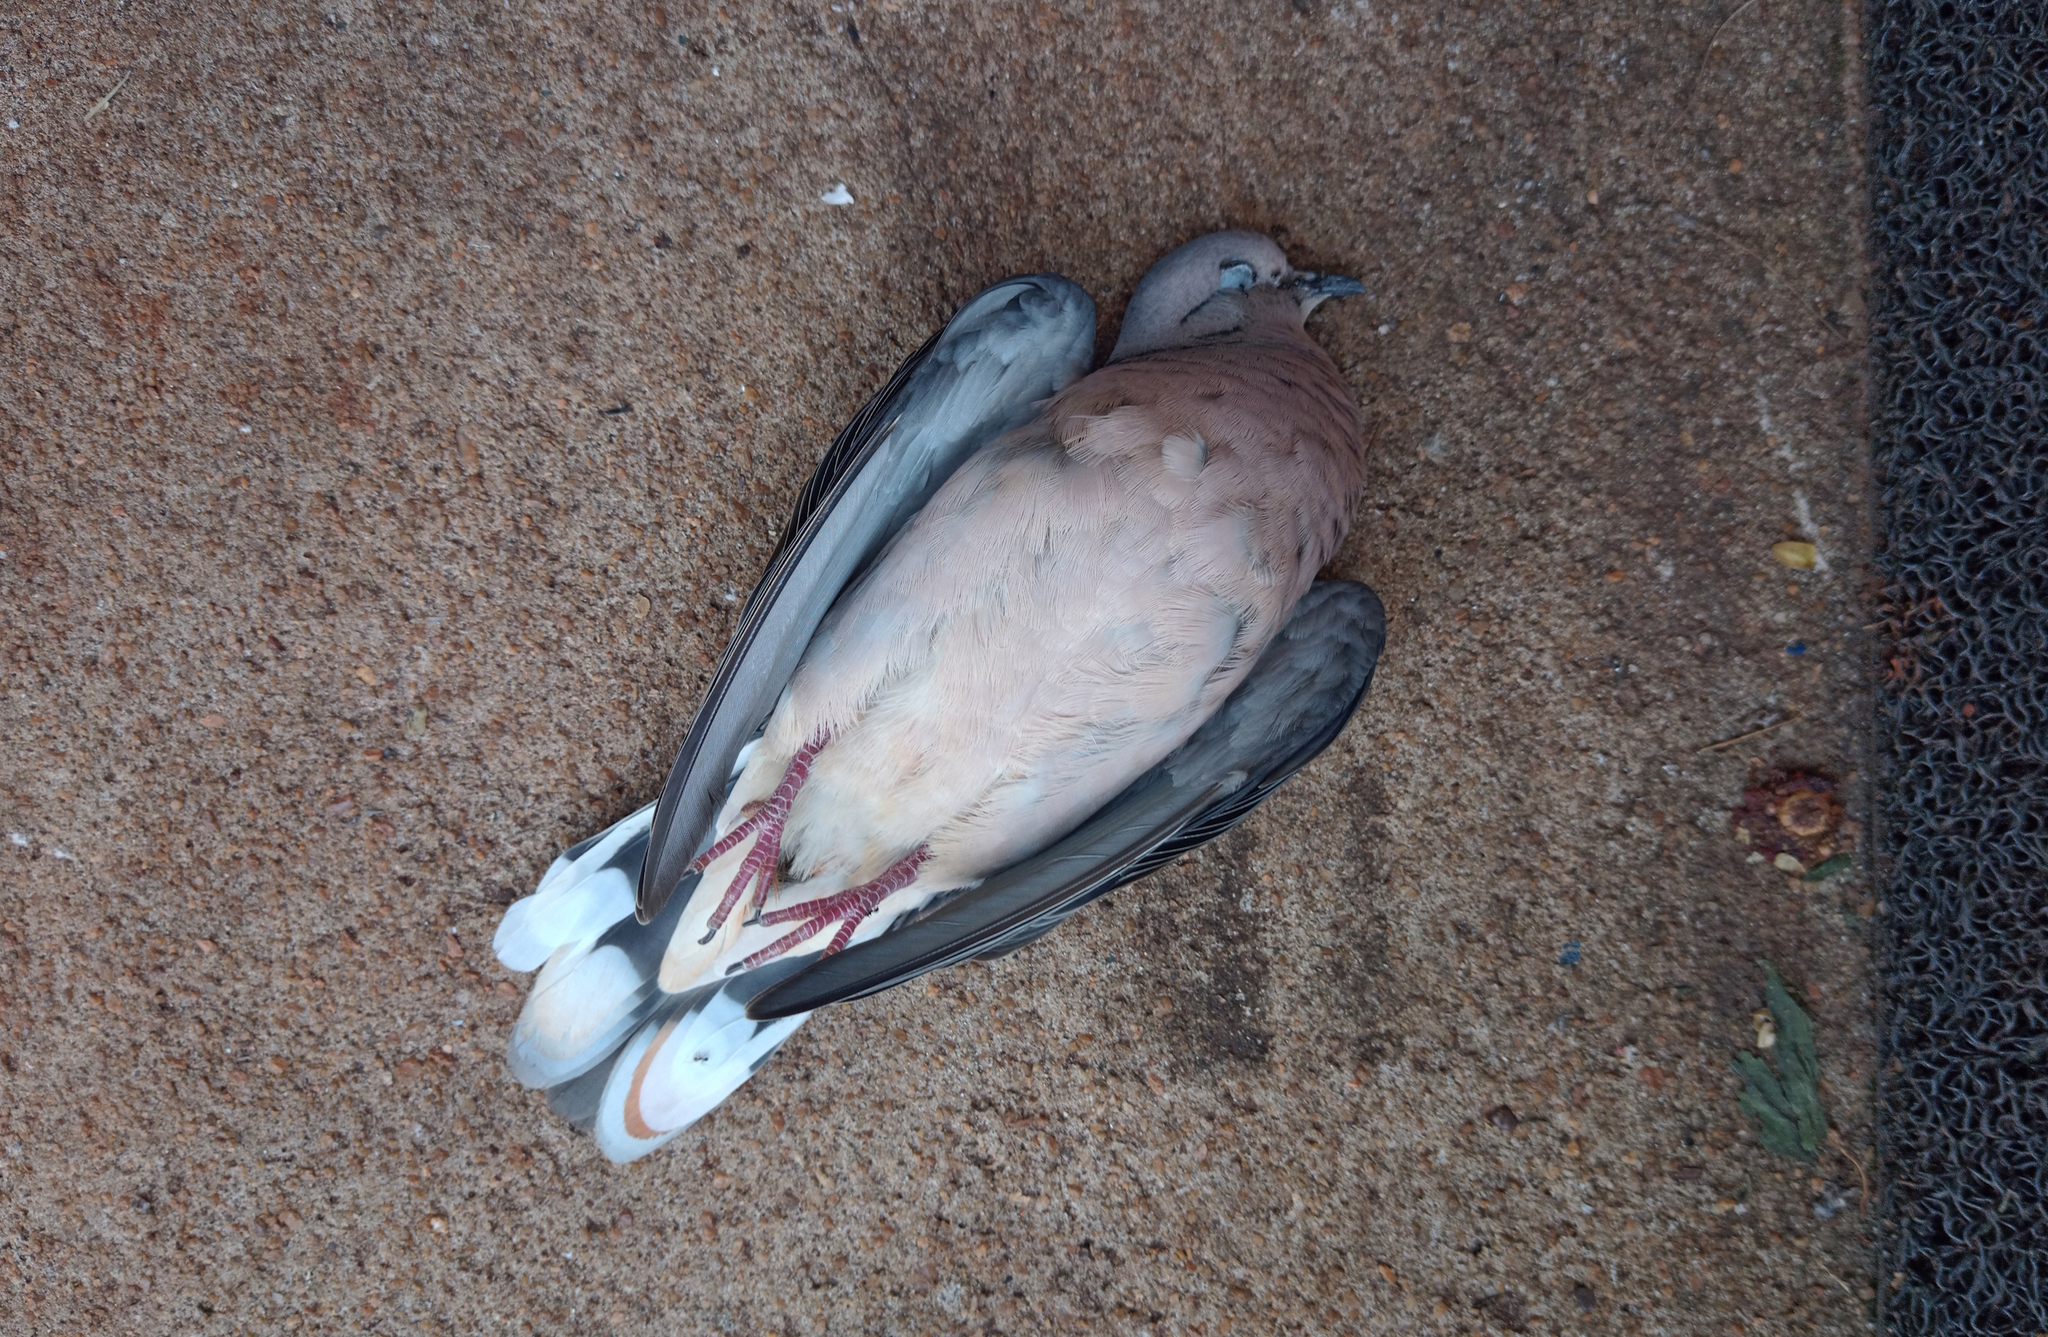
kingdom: Animalia
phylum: Chordata
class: Aves
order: Columbiformes
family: Columbidae
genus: Zenaida
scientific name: Zenaida auriculata
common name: Eared dove
